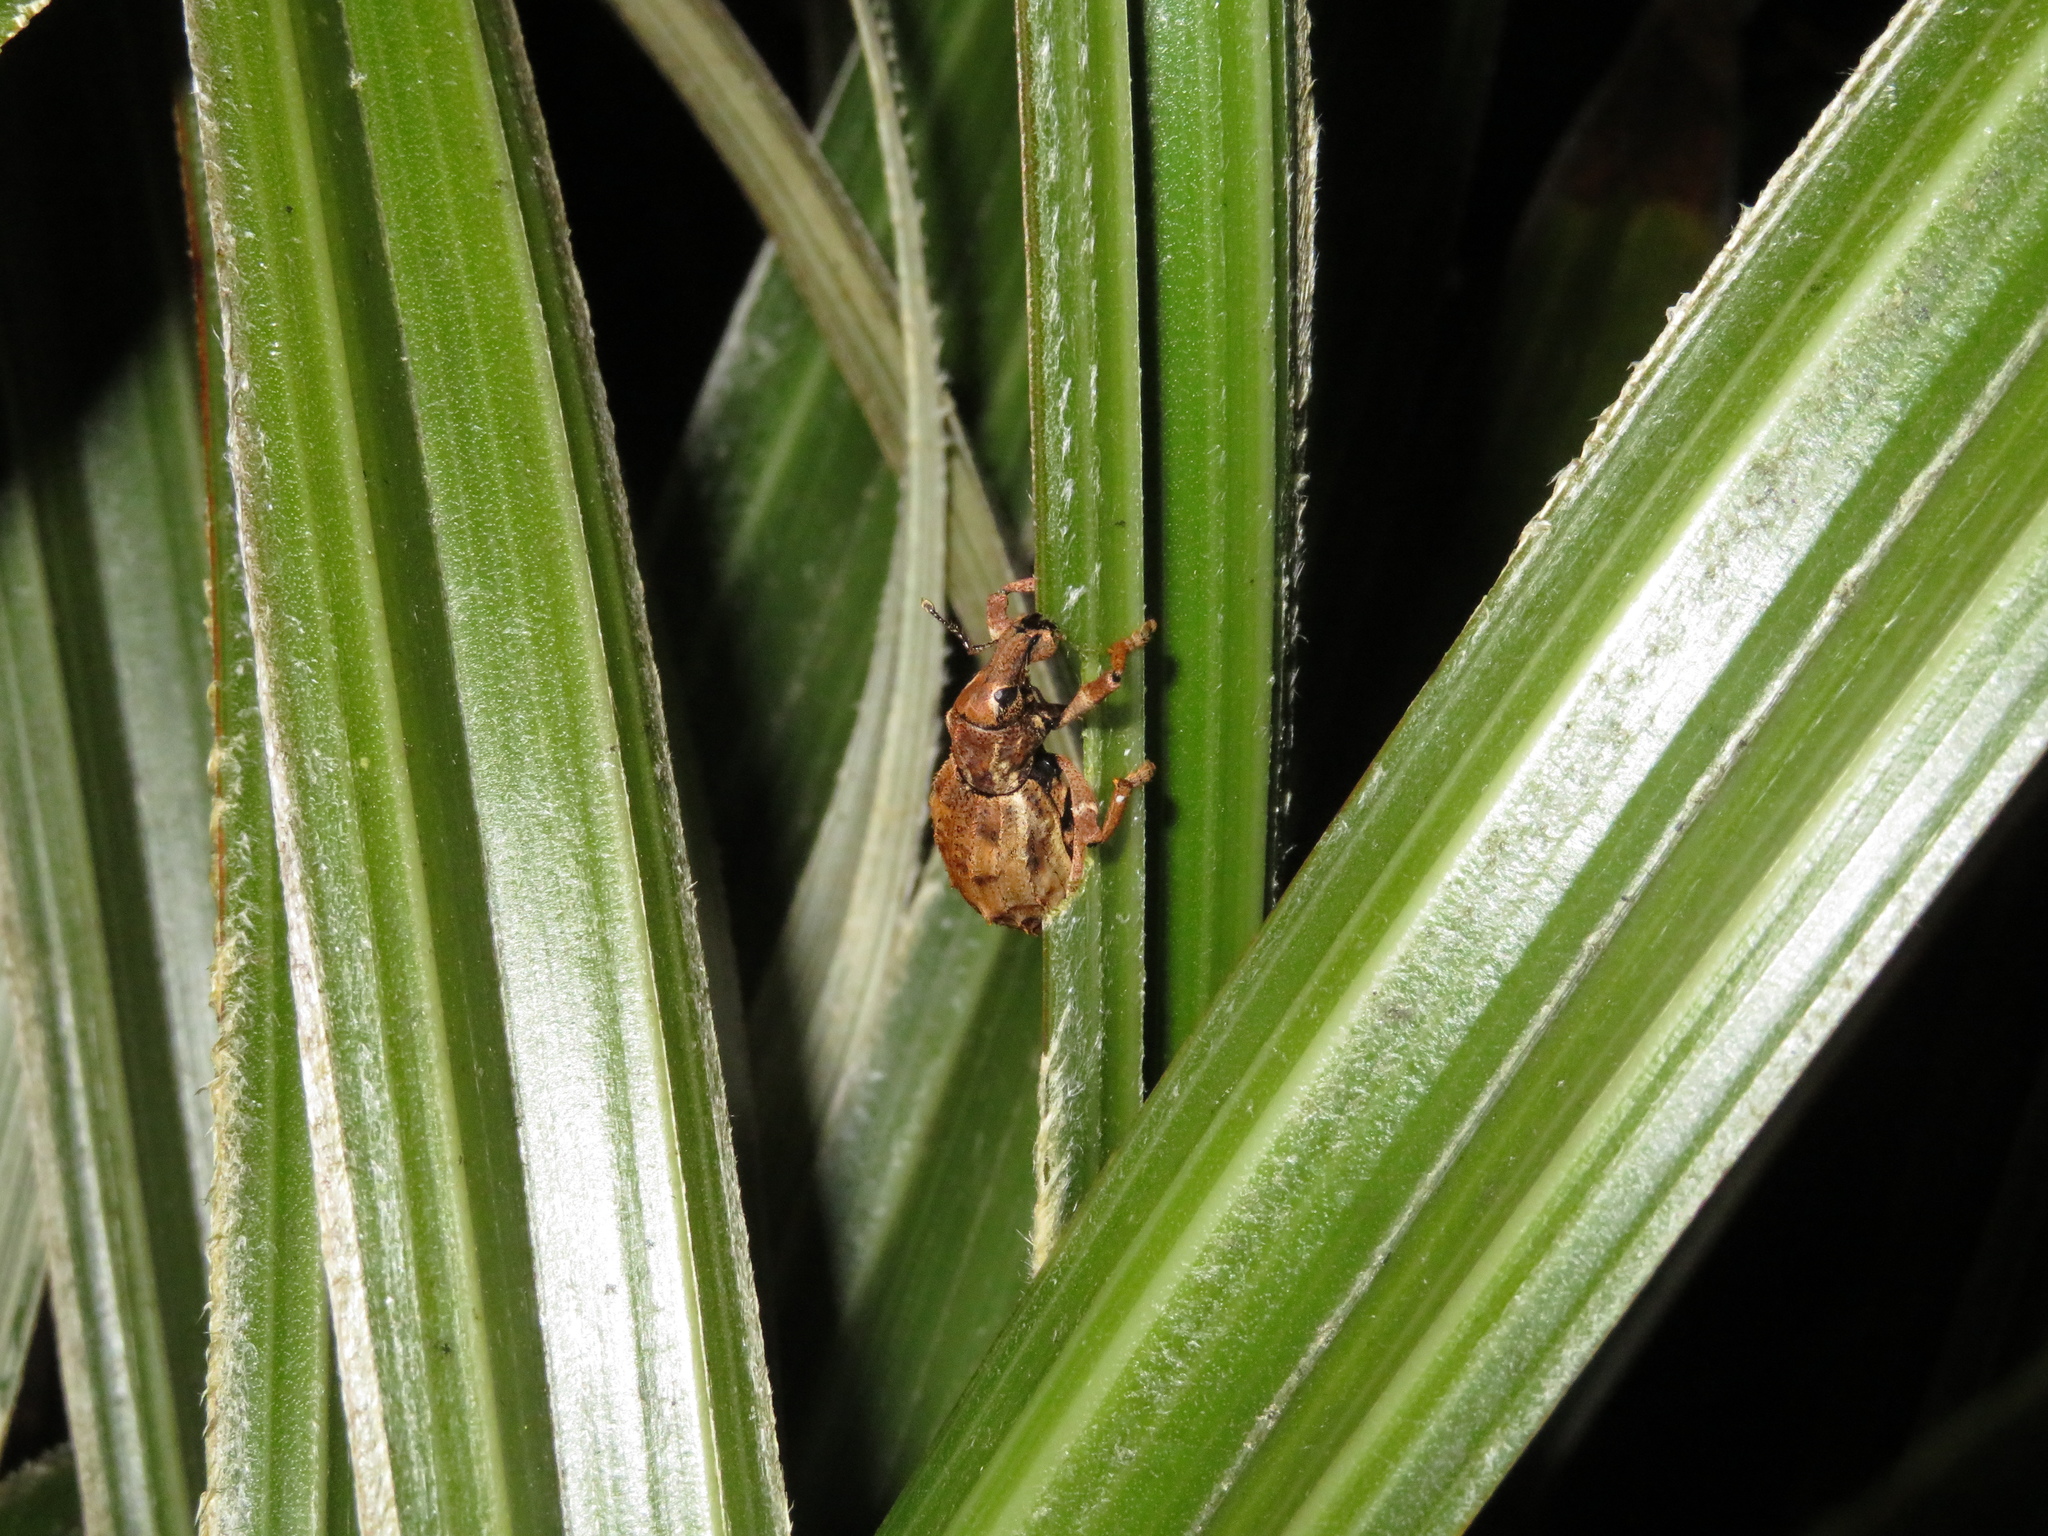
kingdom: Animalia
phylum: Arthropoda
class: Insecta
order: Coleoptera
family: Curculionidae
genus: Anagotus
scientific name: Anagotus
